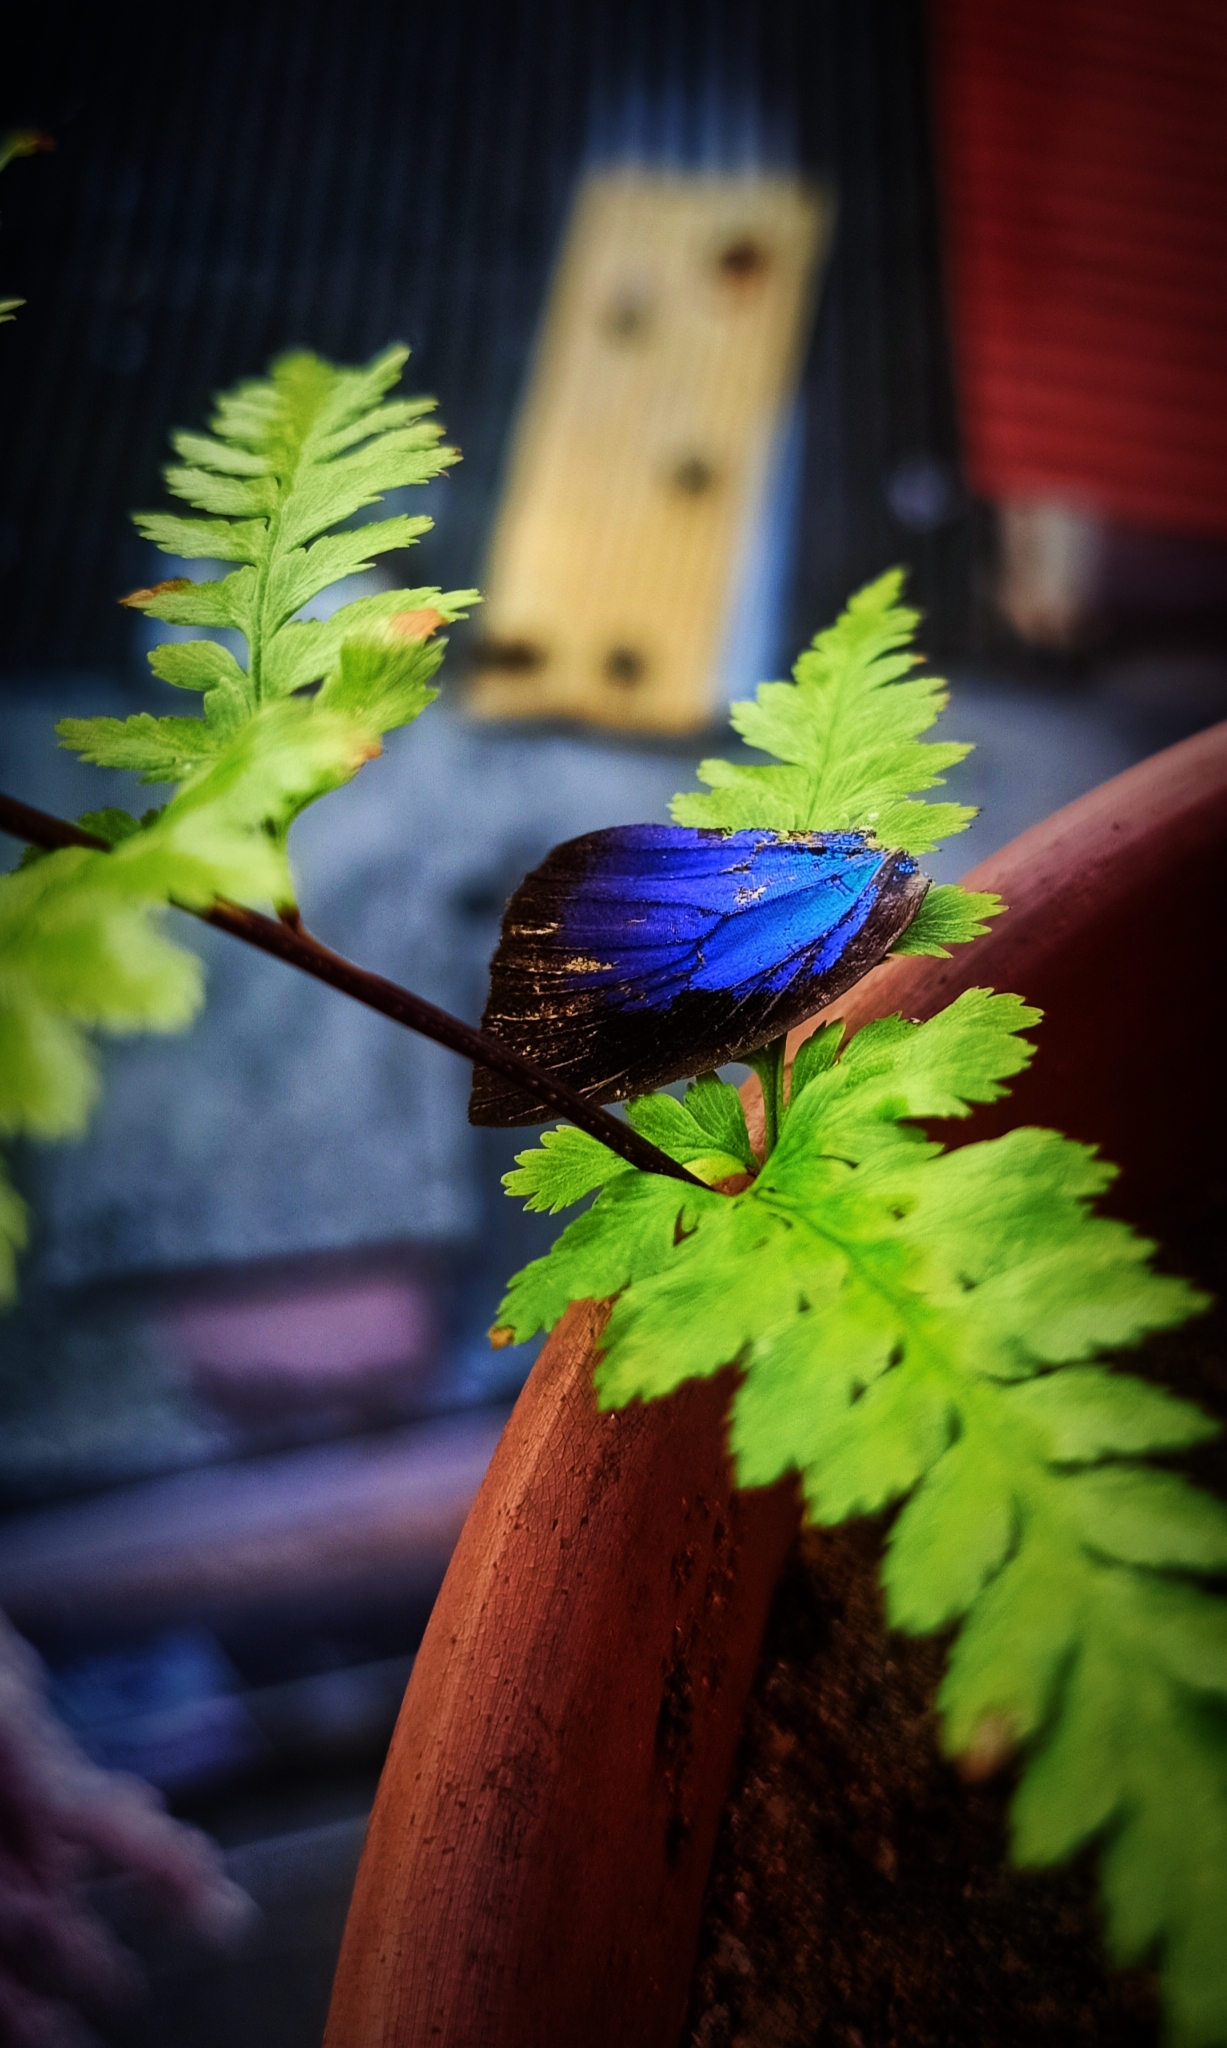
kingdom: Animalia
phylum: Arthropoda
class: Insecta
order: Lepidoptera
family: Lycaenidae
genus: Arhopala
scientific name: Arhopala centaurus
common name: Dull oak-blue
